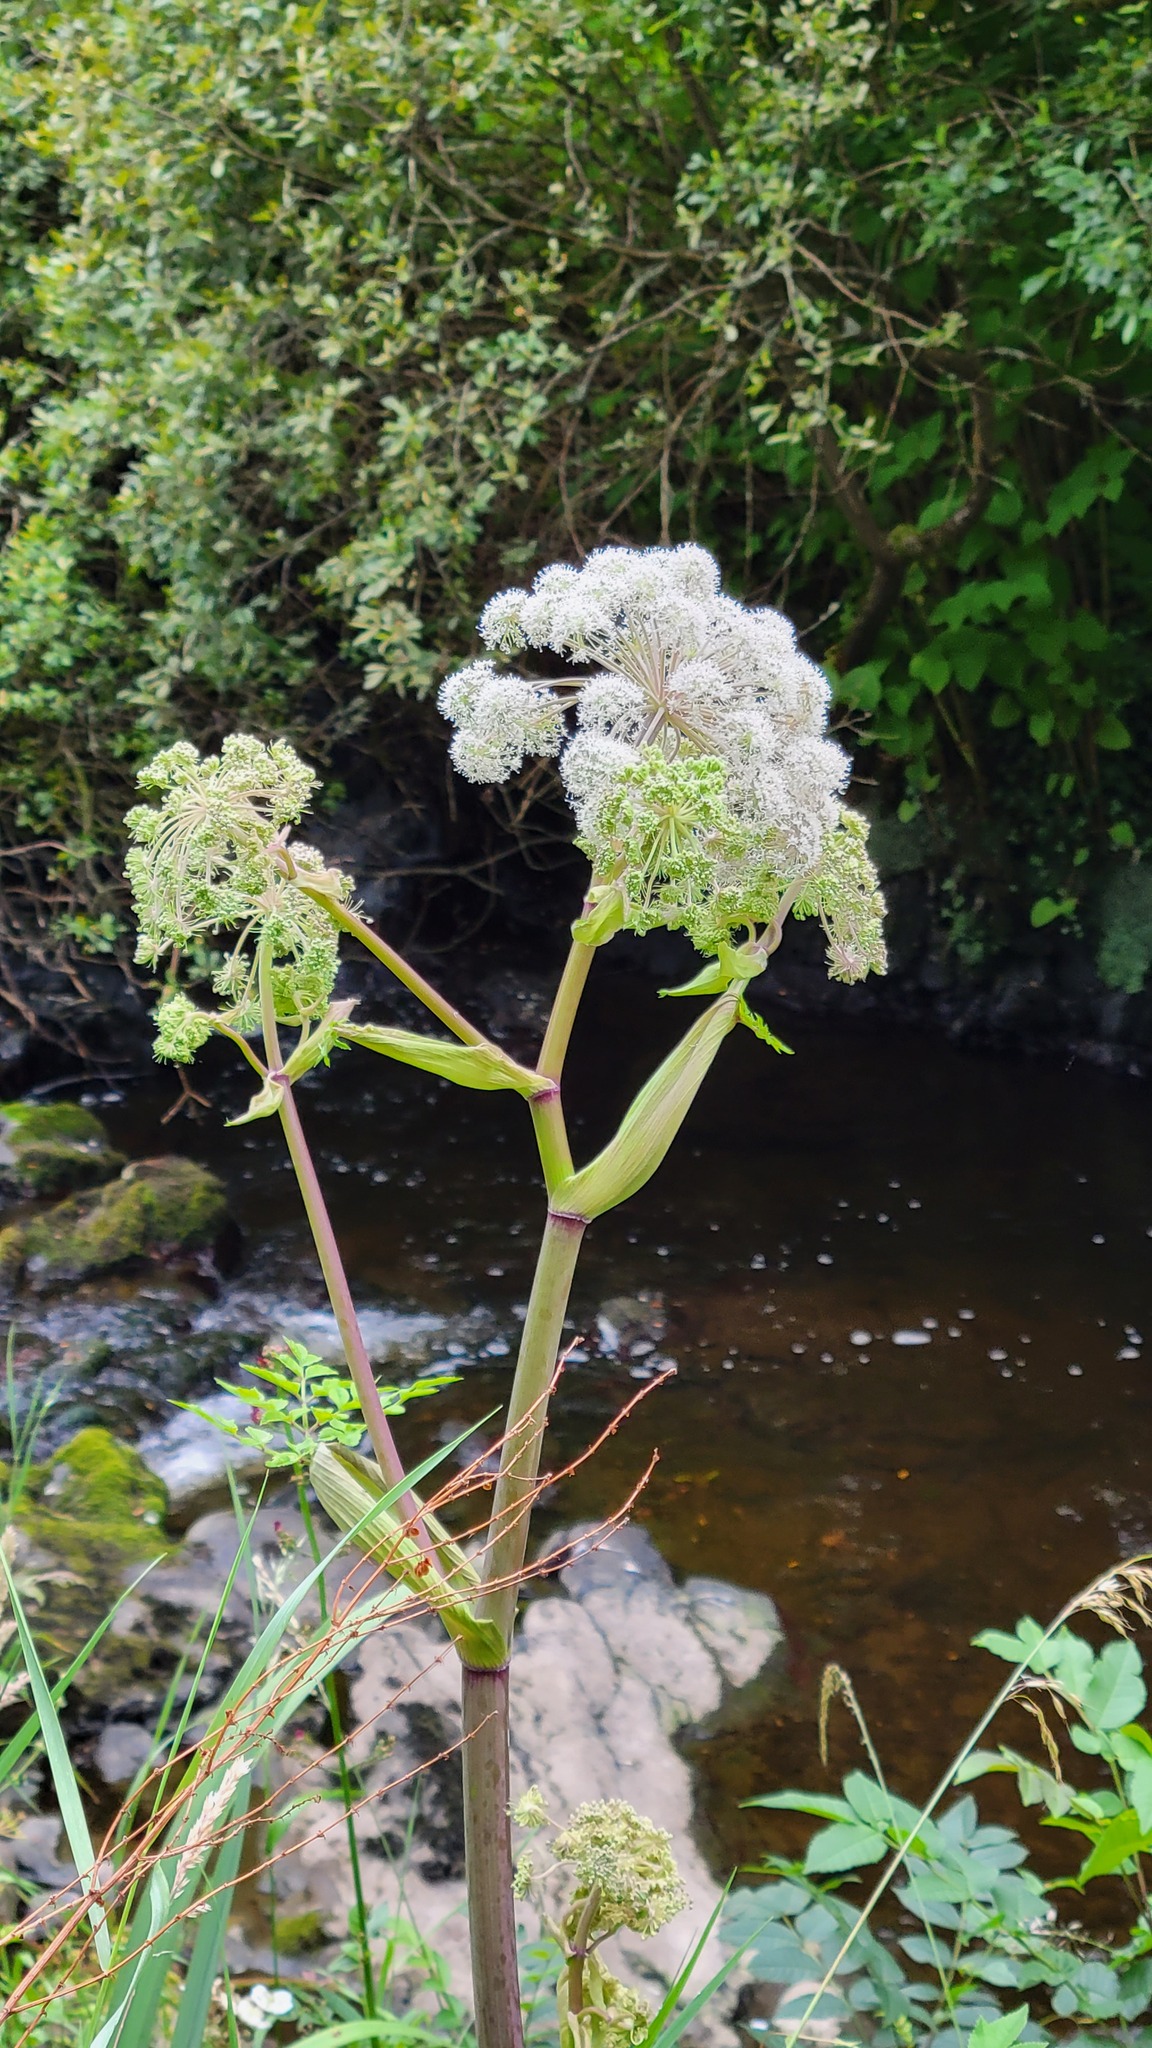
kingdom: Plantae
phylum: Tracheophyta
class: Magnoliopsida
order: Apiales
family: Apiaceae
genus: Angelica
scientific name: Angelica sylvestris
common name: Wild angelica
